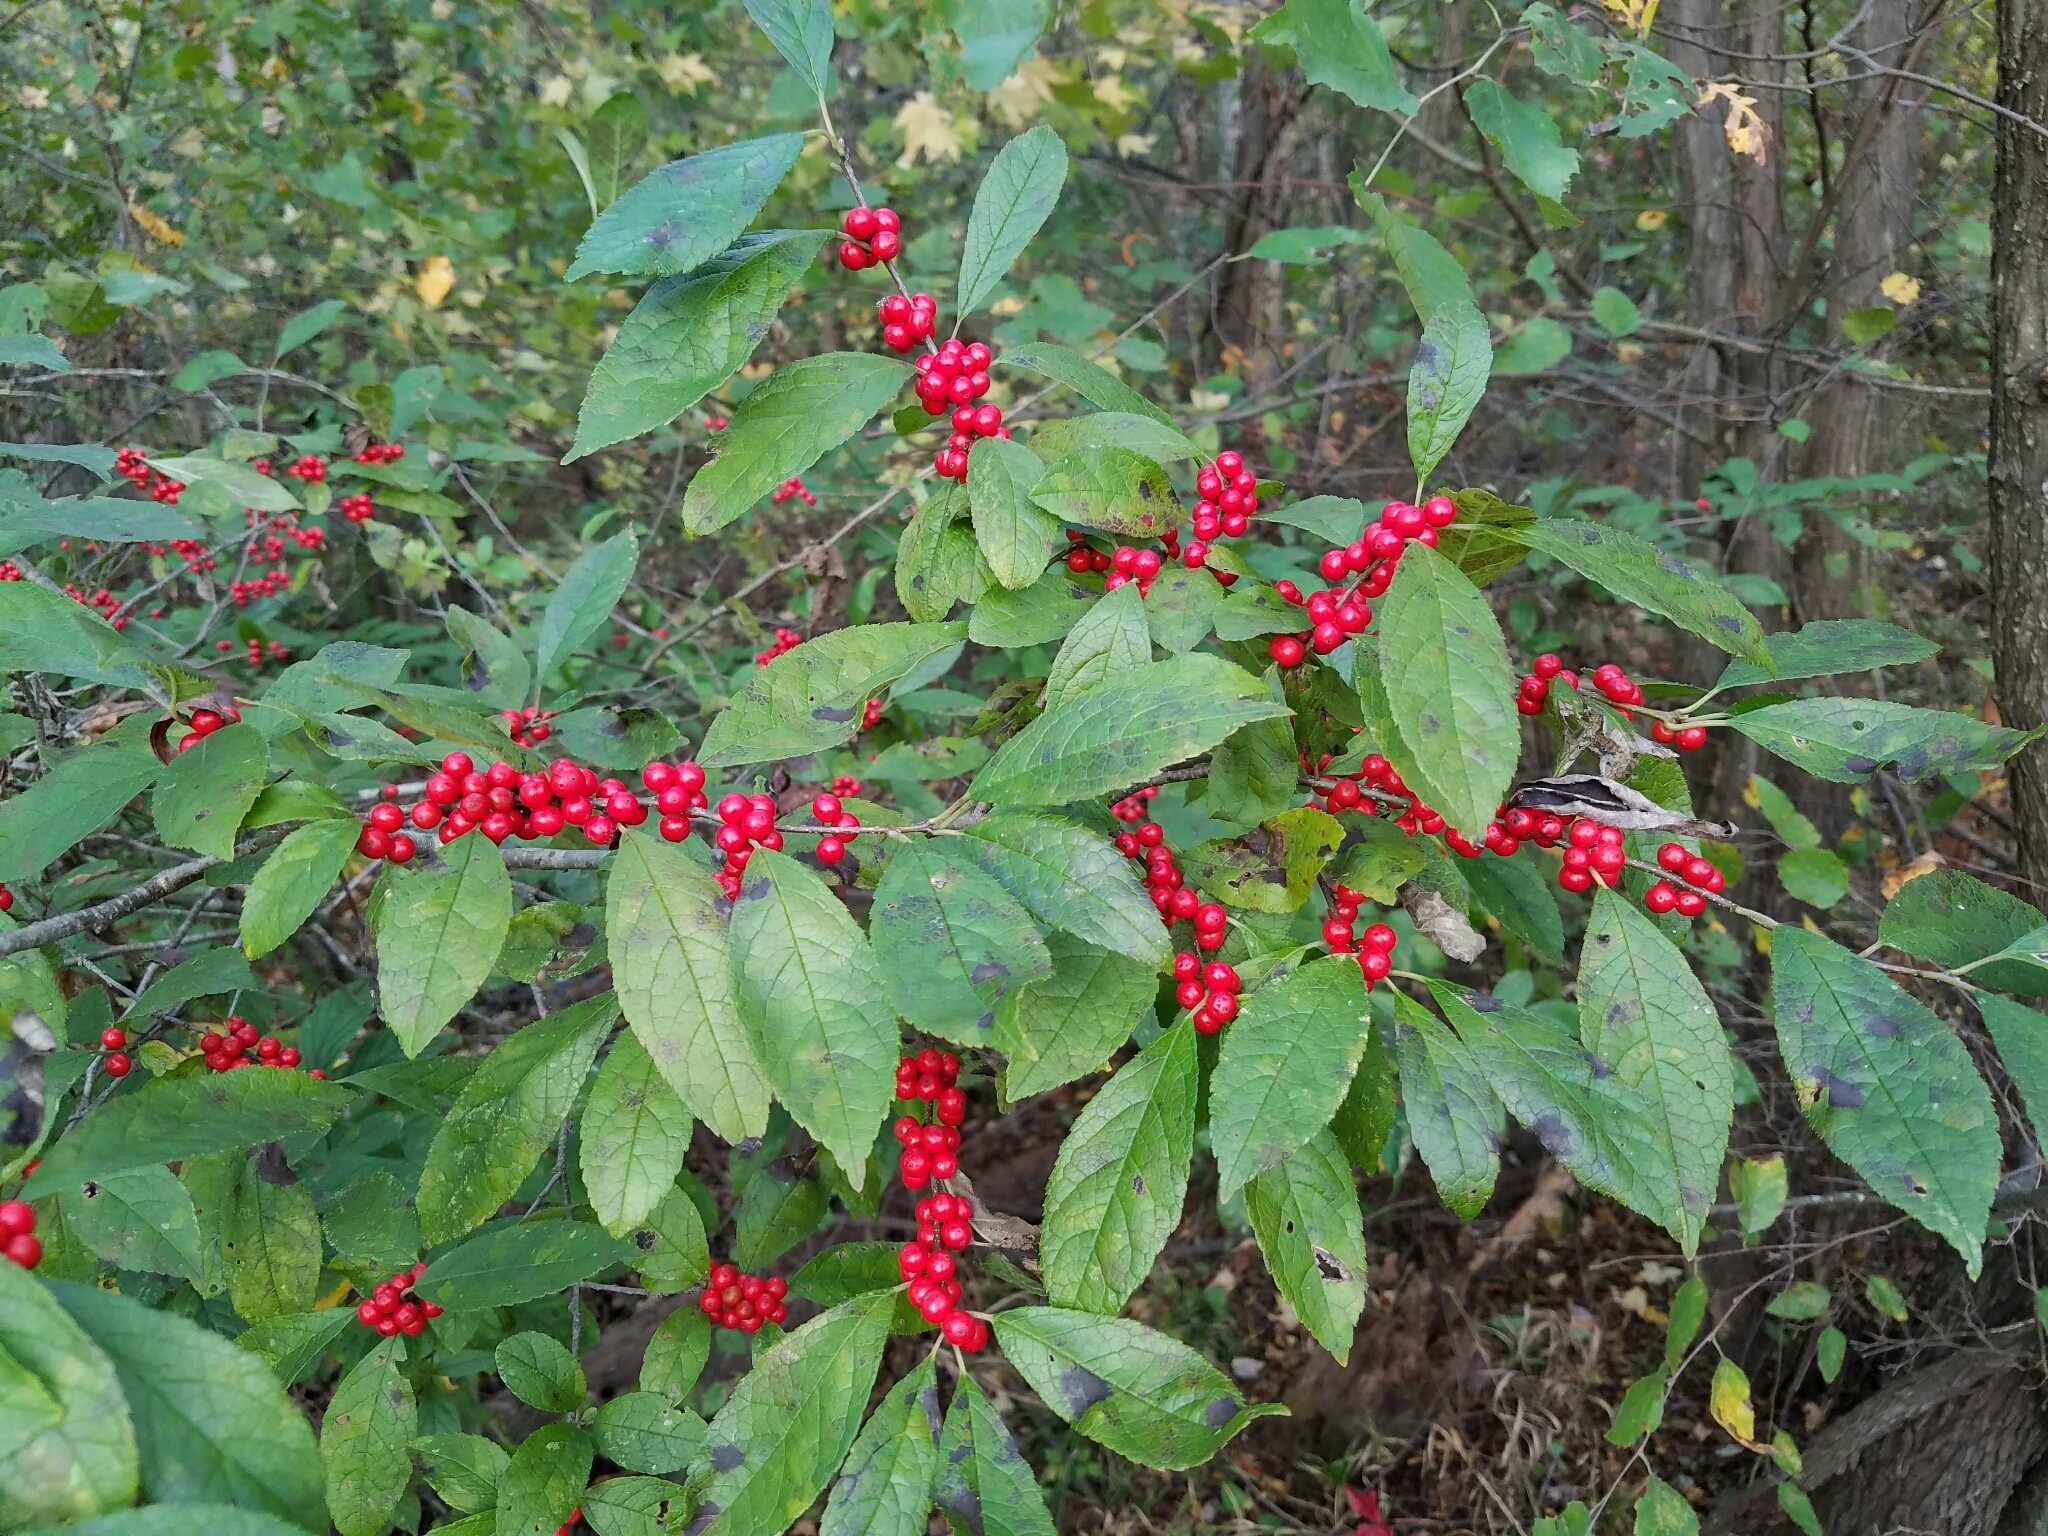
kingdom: Plantae
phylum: Tracheophyta
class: Magnoliopsida
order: Aquifoliales
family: Aquifoliaceae
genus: Ilex
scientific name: Ilex verticillata
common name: Virginia winterberry
